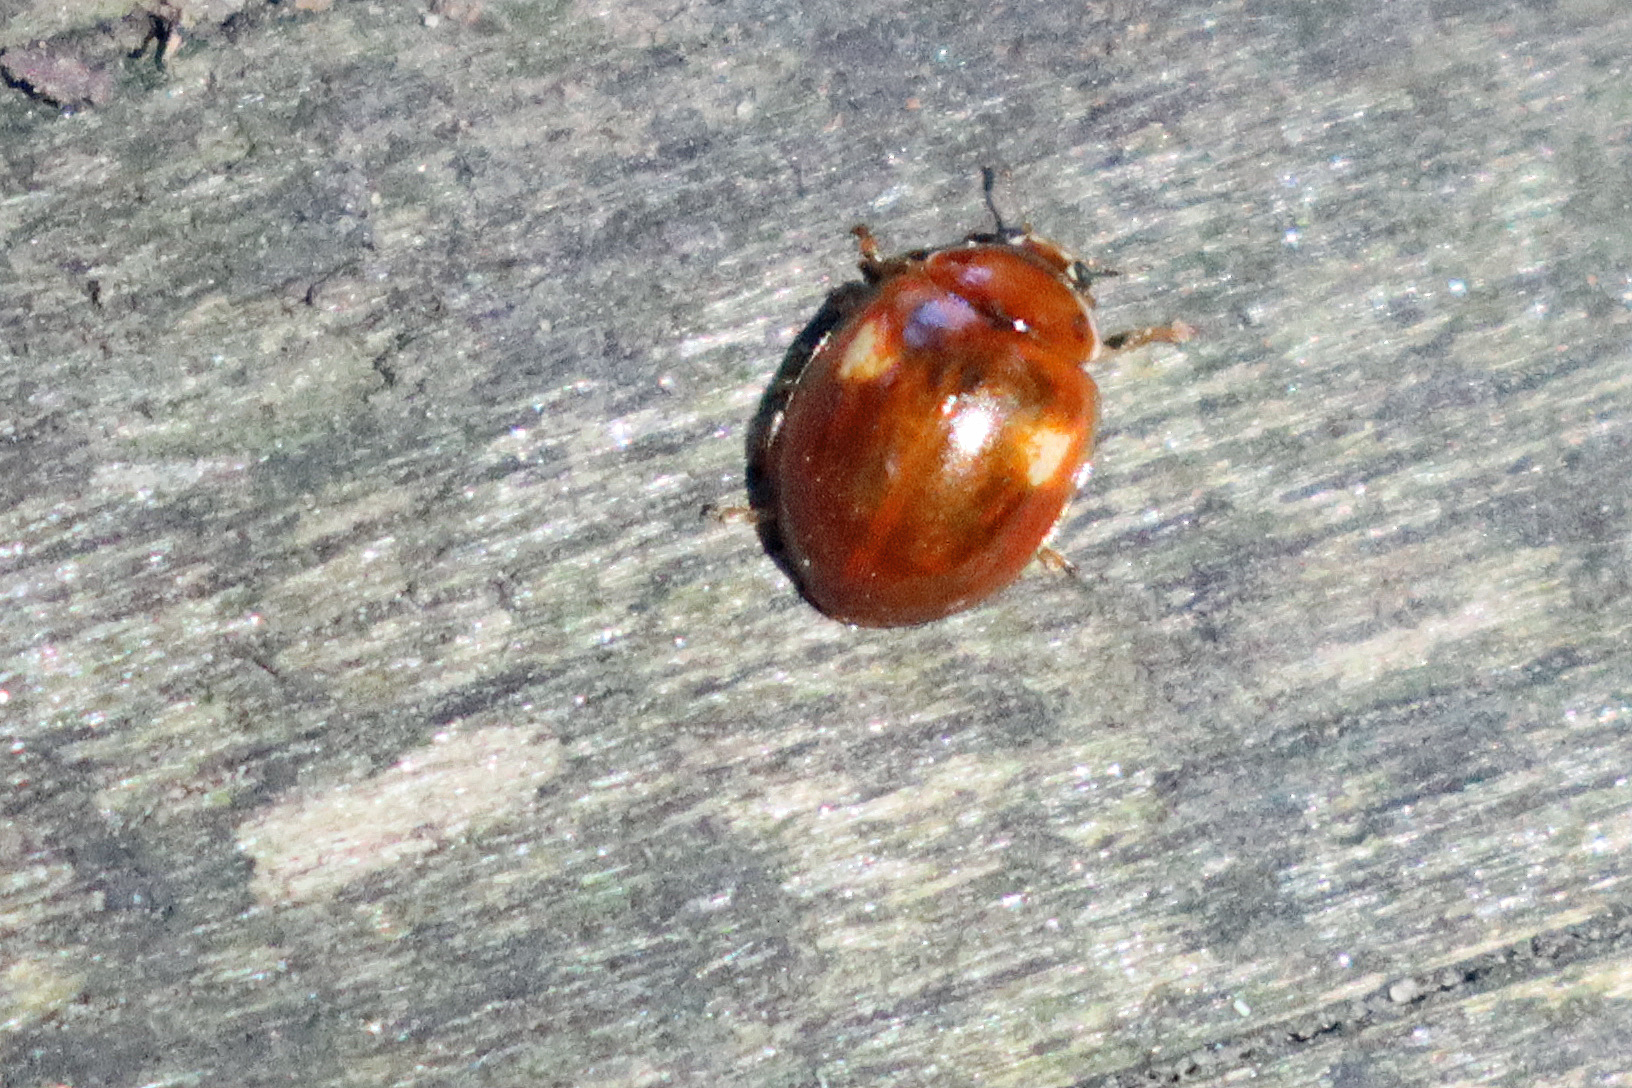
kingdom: Animalia
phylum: Arthropoda
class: Insecta
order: Coleoptera
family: Coccinellidae
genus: Adalia
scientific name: Adalia decempunctata
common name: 10-spot ladybird
